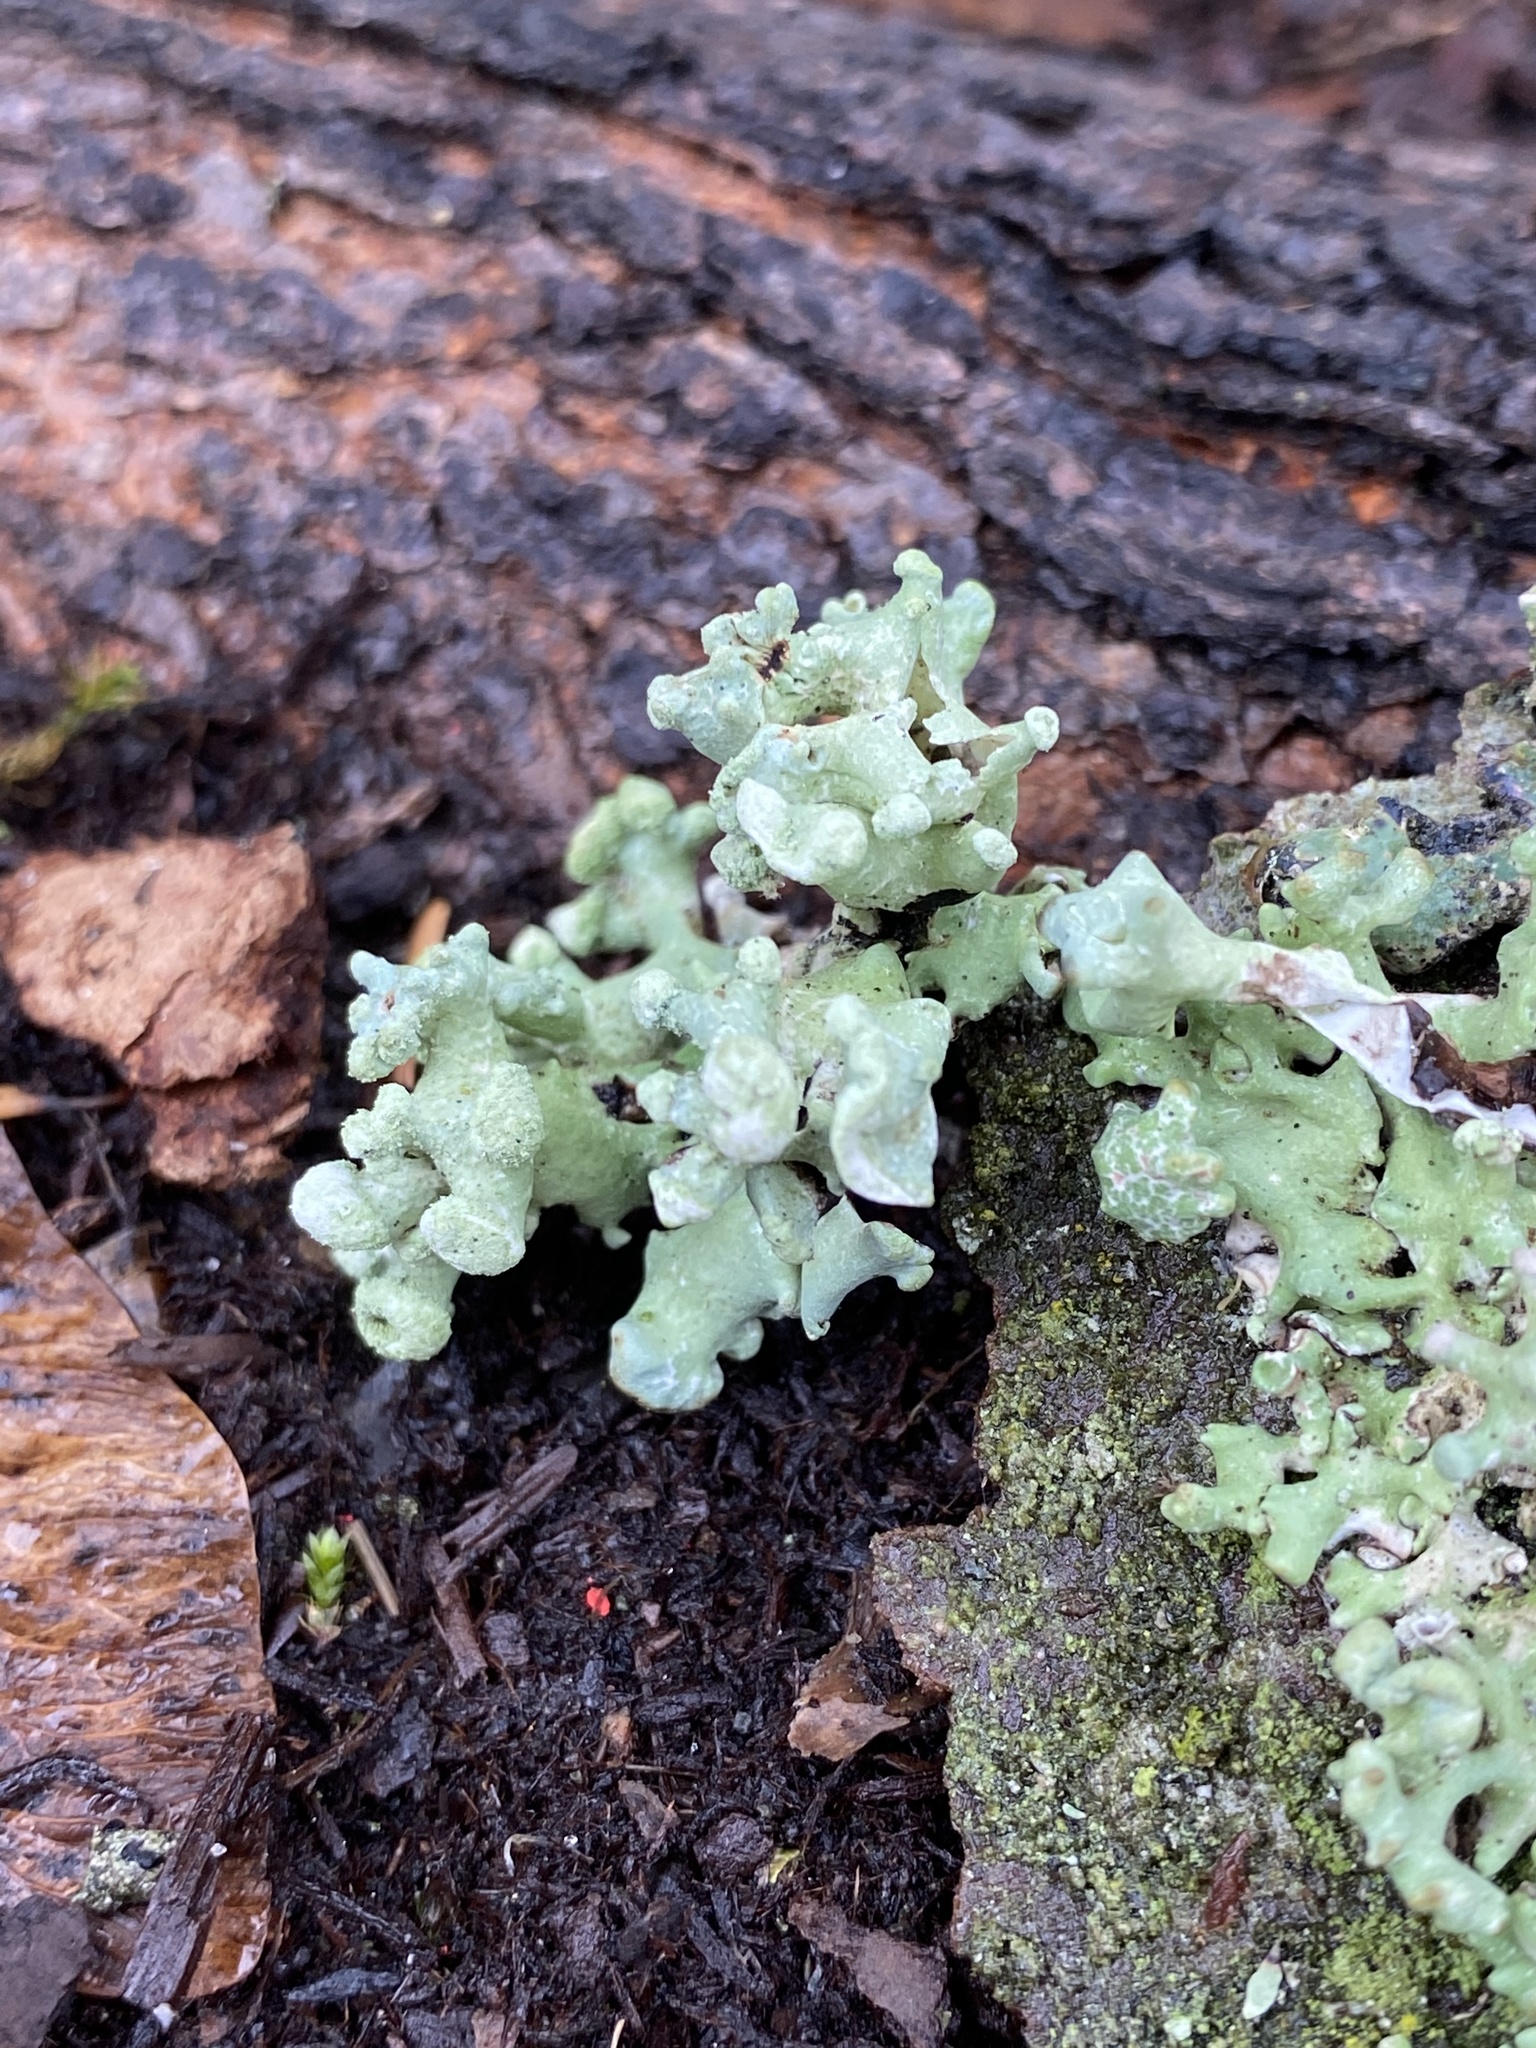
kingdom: Fungi
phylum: Ascomycota
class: Lecanoromycetes
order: Lecanorales
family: Parmeliaceae
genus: Hypogymnia
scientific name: Hypogymnia tubulosa
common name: Powder-headed tube lichen
